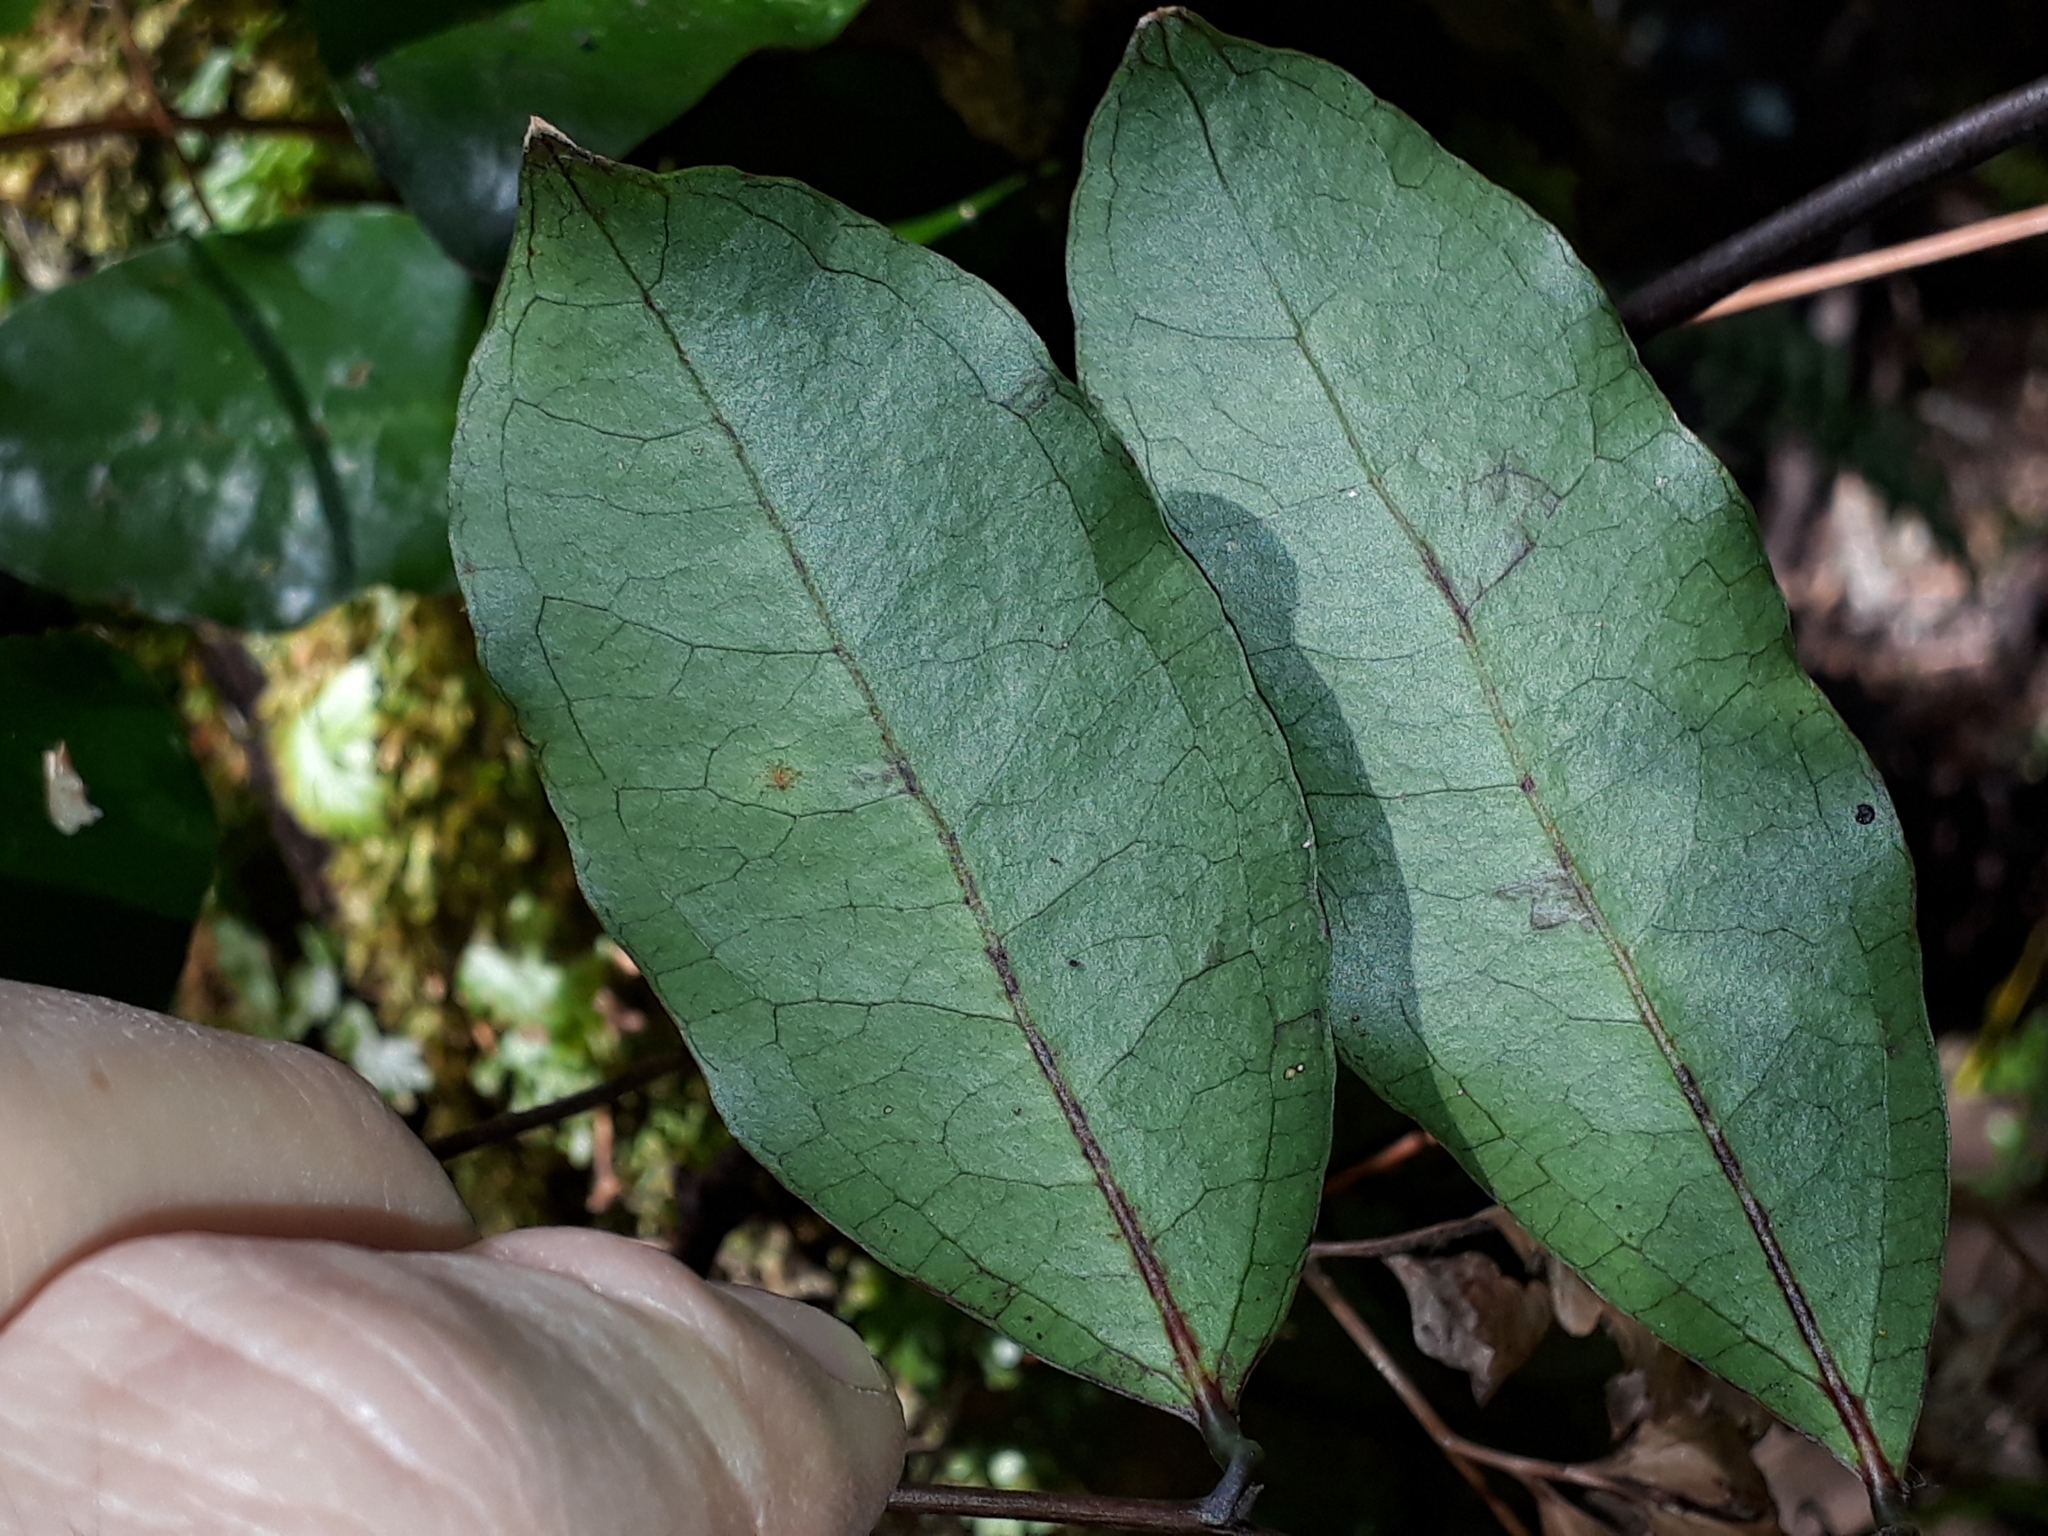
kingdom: Plantae
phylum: Tracheophyta
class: Liliopsida
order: Liliales
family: Ripogonaceae
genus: Ripogonum
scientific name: Ripogonum scandens
